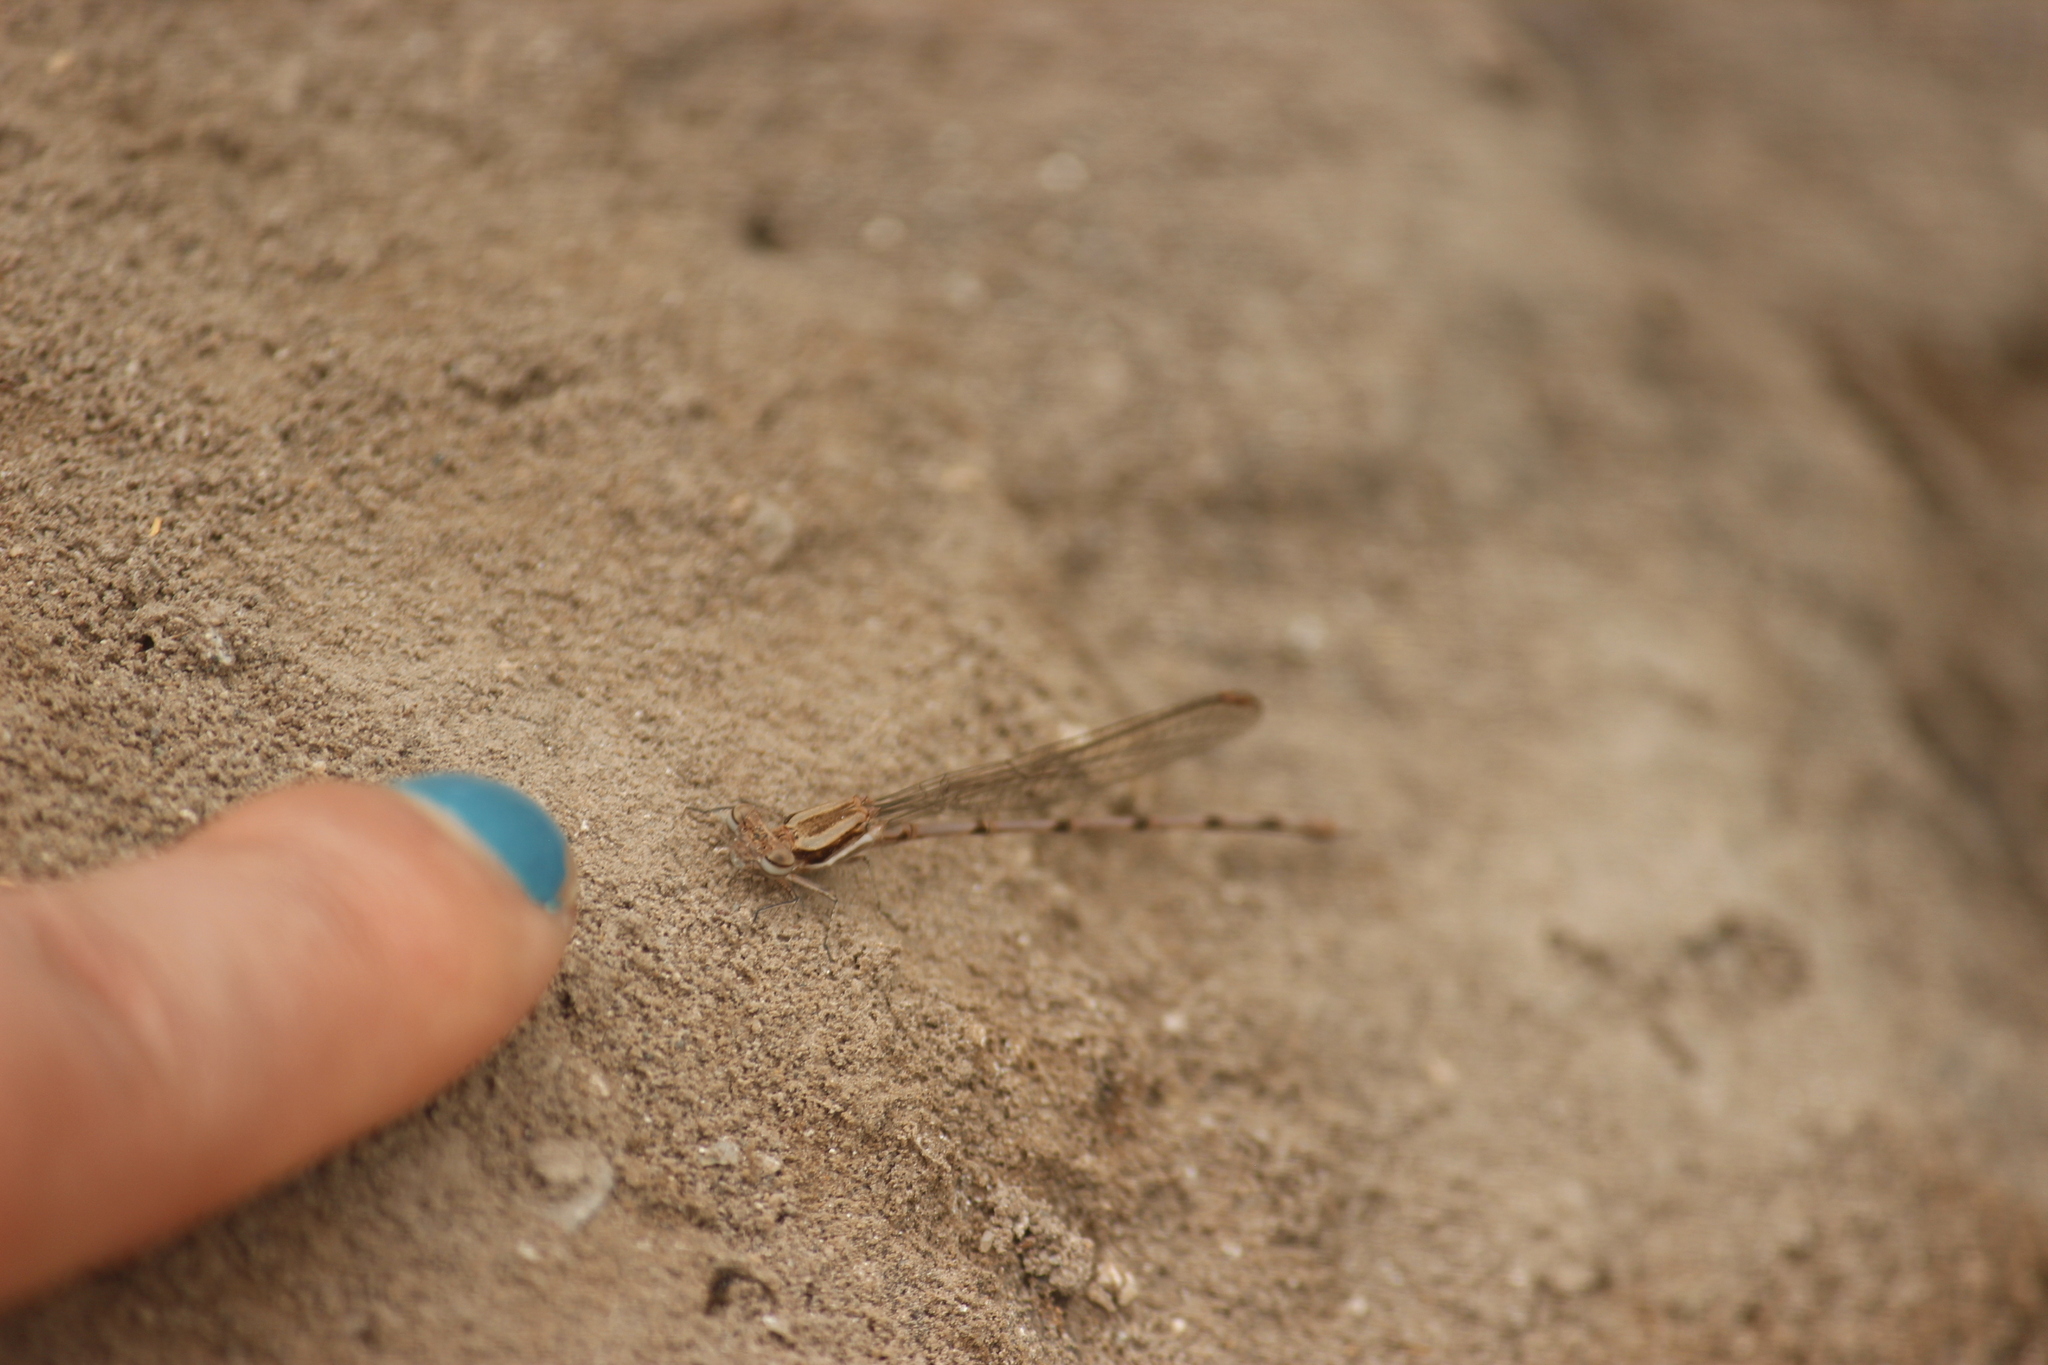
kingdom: Animalia
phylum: Arthropoda
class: Insecta
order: Odonata
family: Coenagrionidae
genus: Argia
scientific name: Argia inculta
